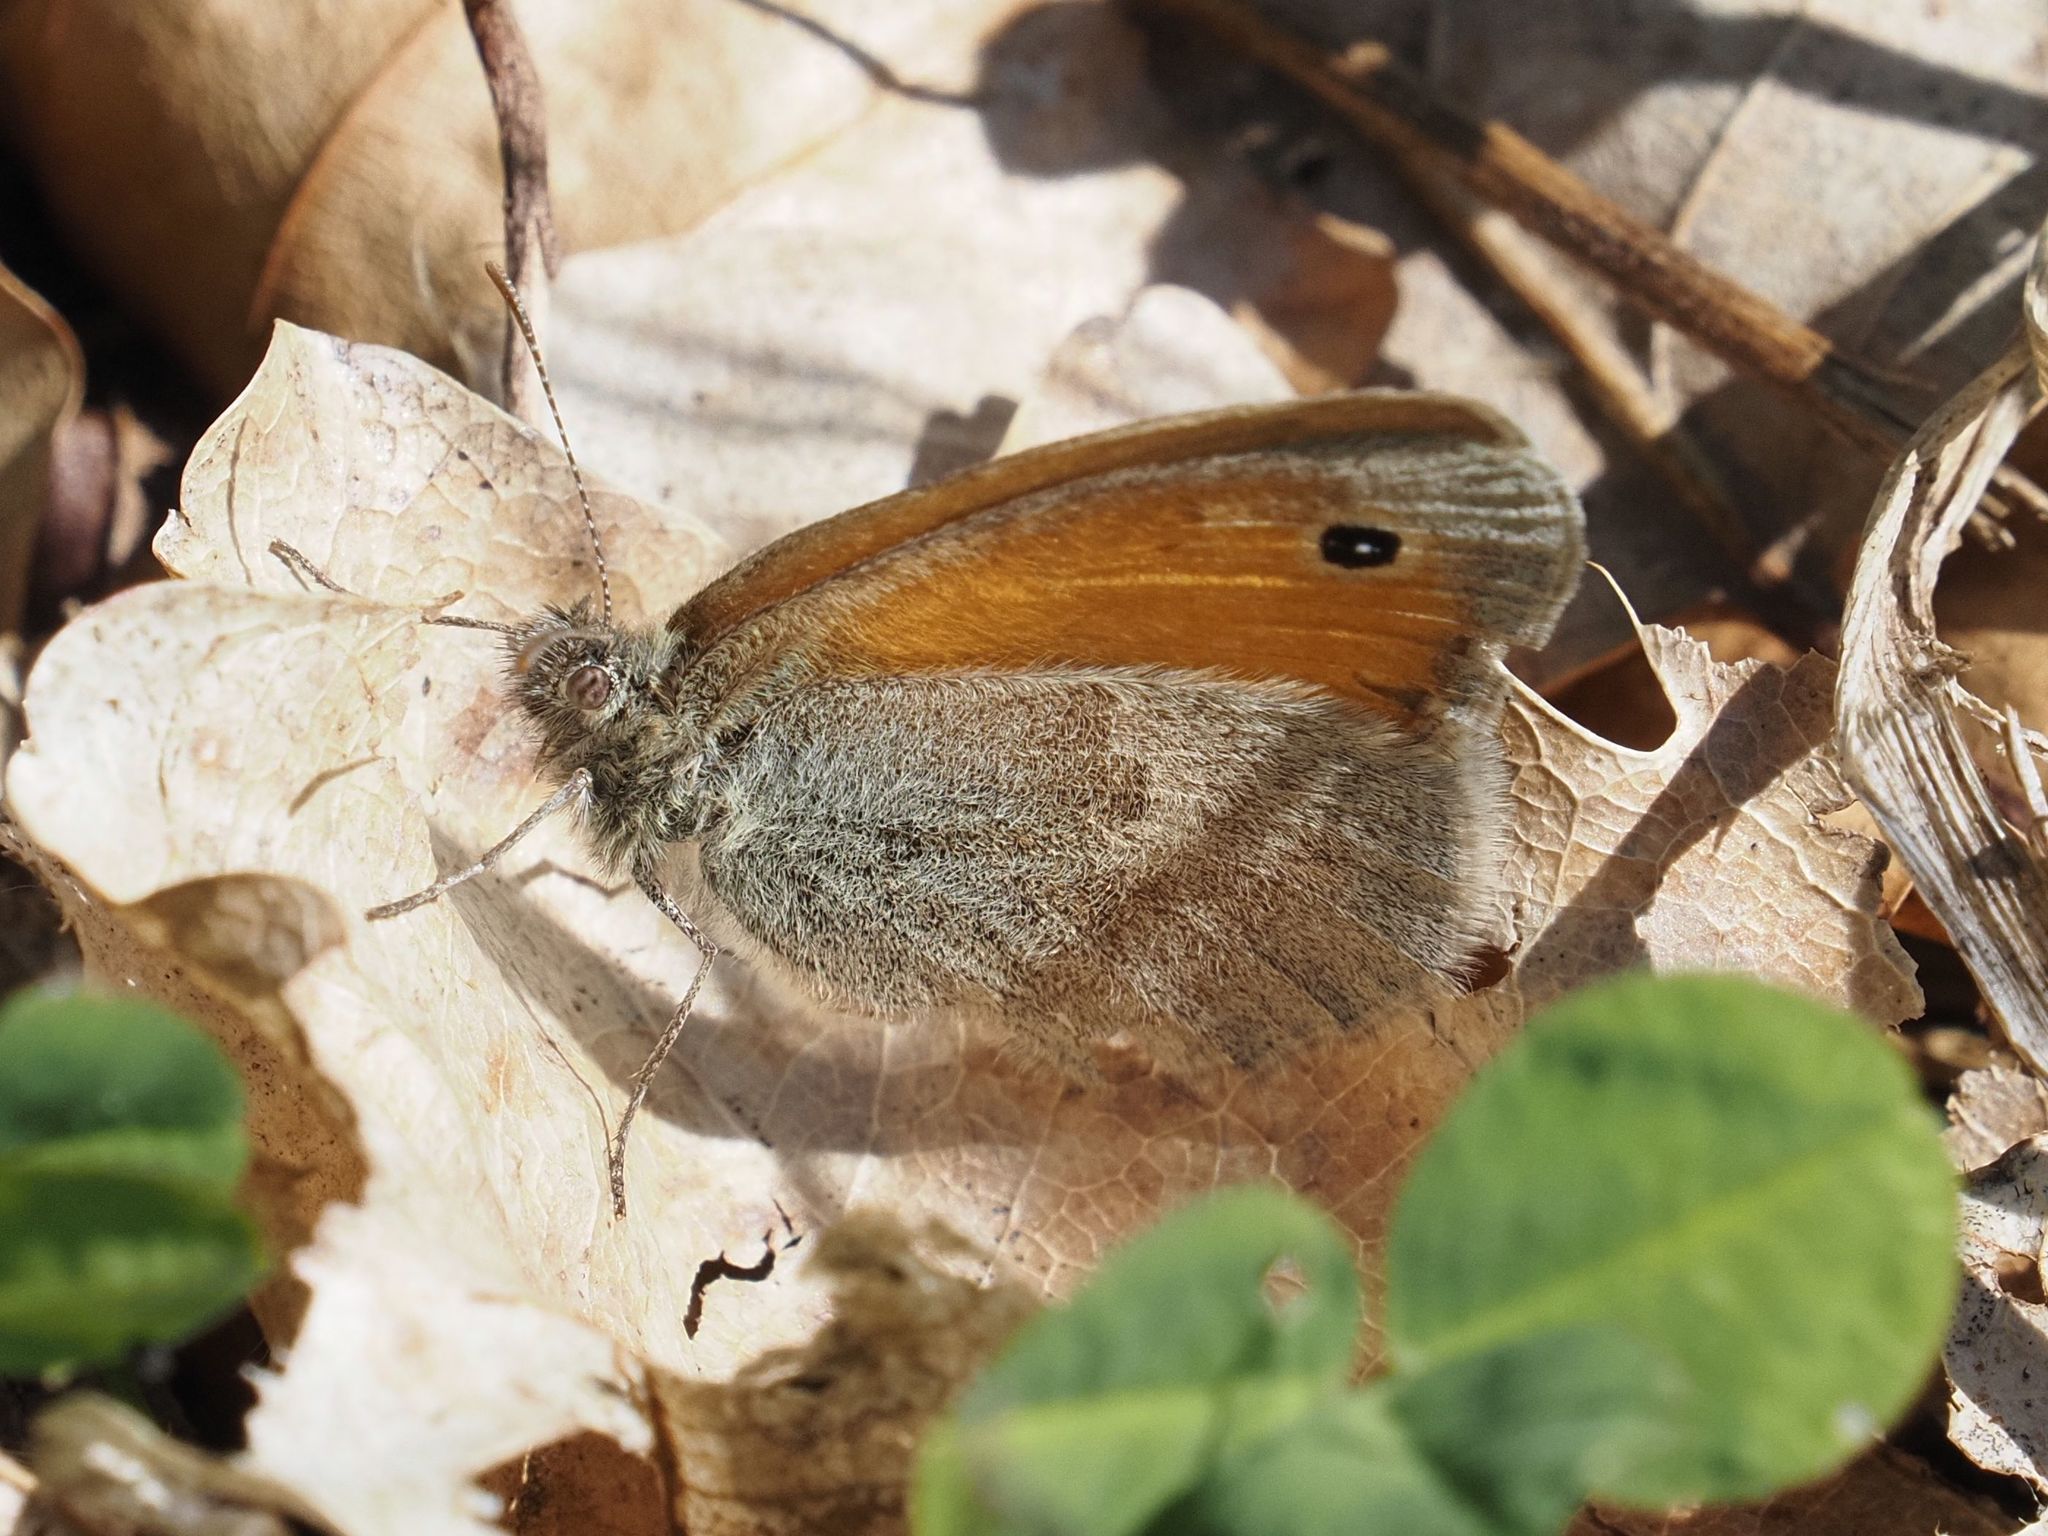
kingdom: Animalia
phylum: Arthropoda
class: Insecta
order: Lepidoptera
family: Nymphalidae
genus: Coenonympha
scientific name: Coenonympha pamphilus
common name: Small heath
